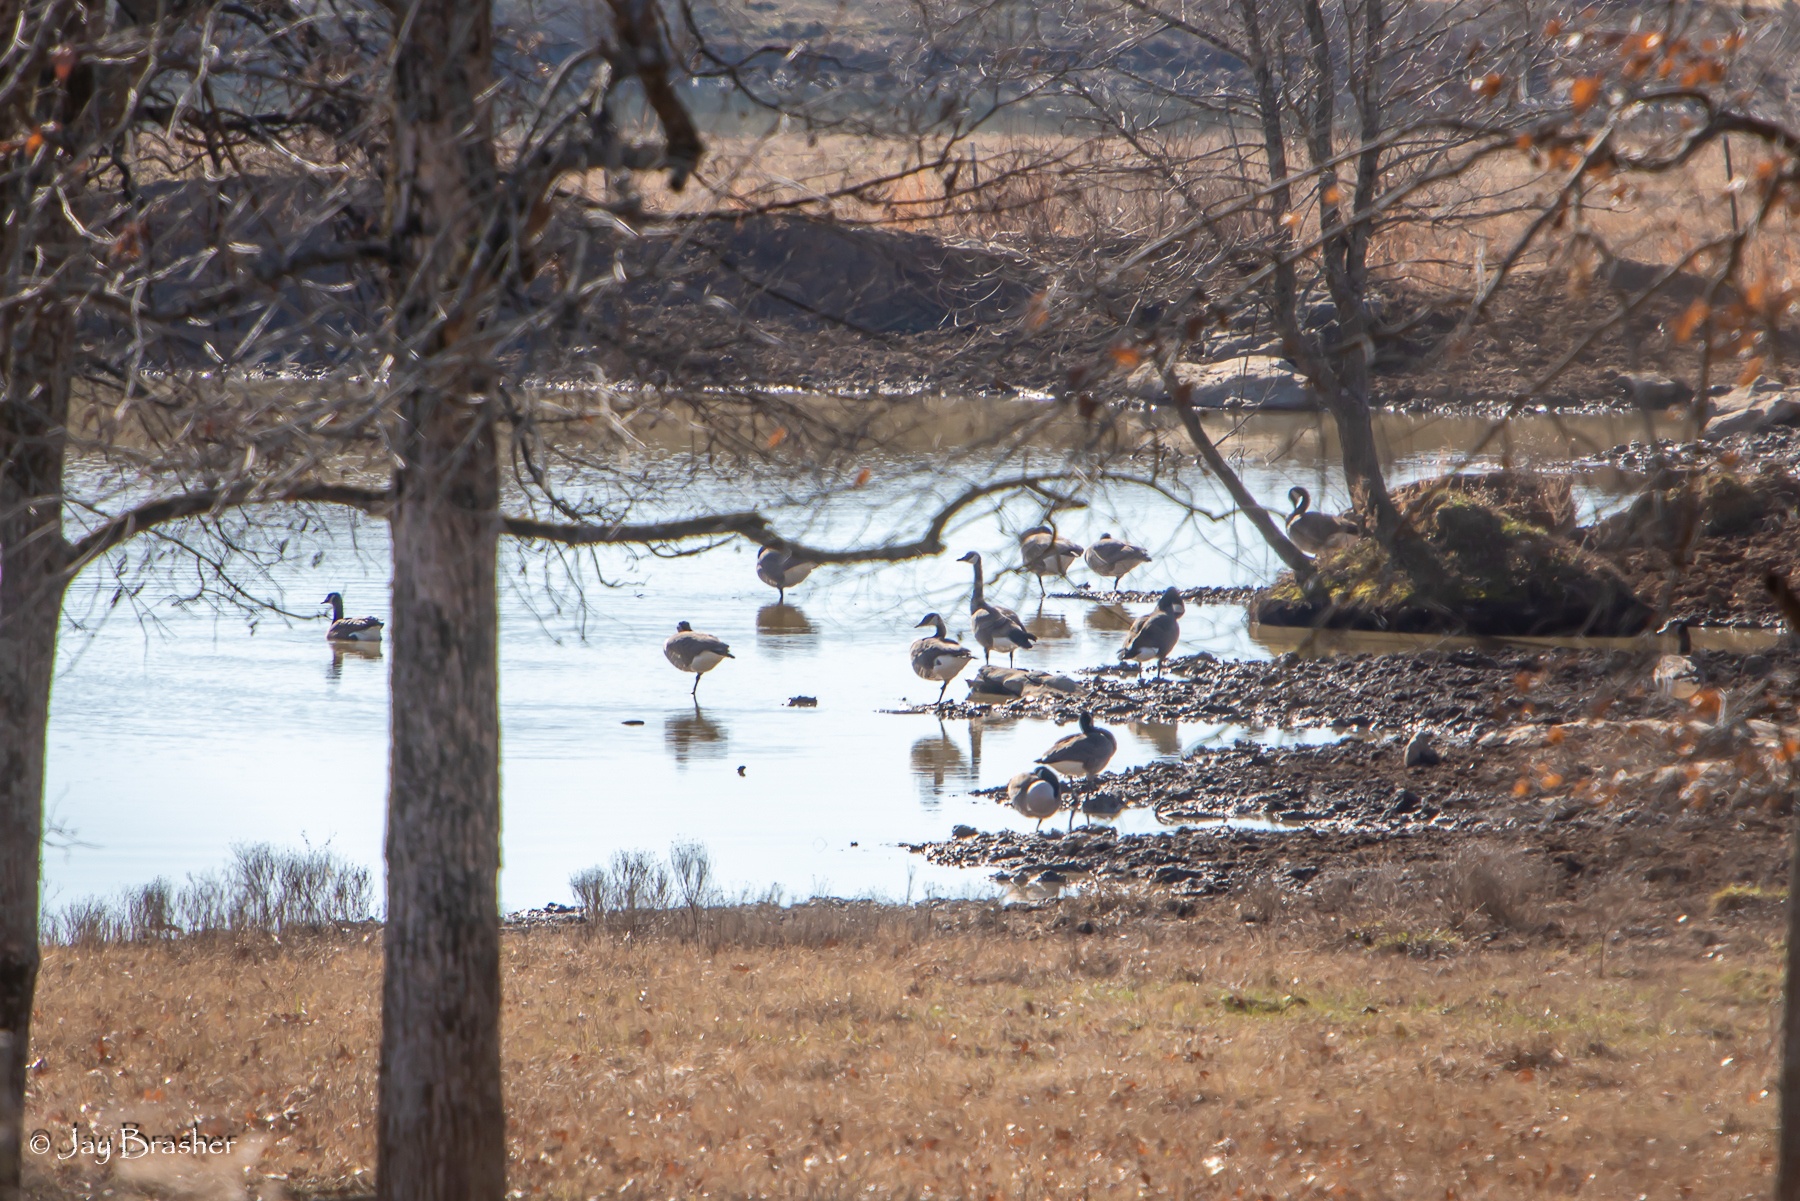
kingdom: Animalia
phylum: Chordata
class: Aves
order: Anseriformes
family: Anatidae
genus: Branta
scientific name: Branta canadensis
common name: Canada goose
